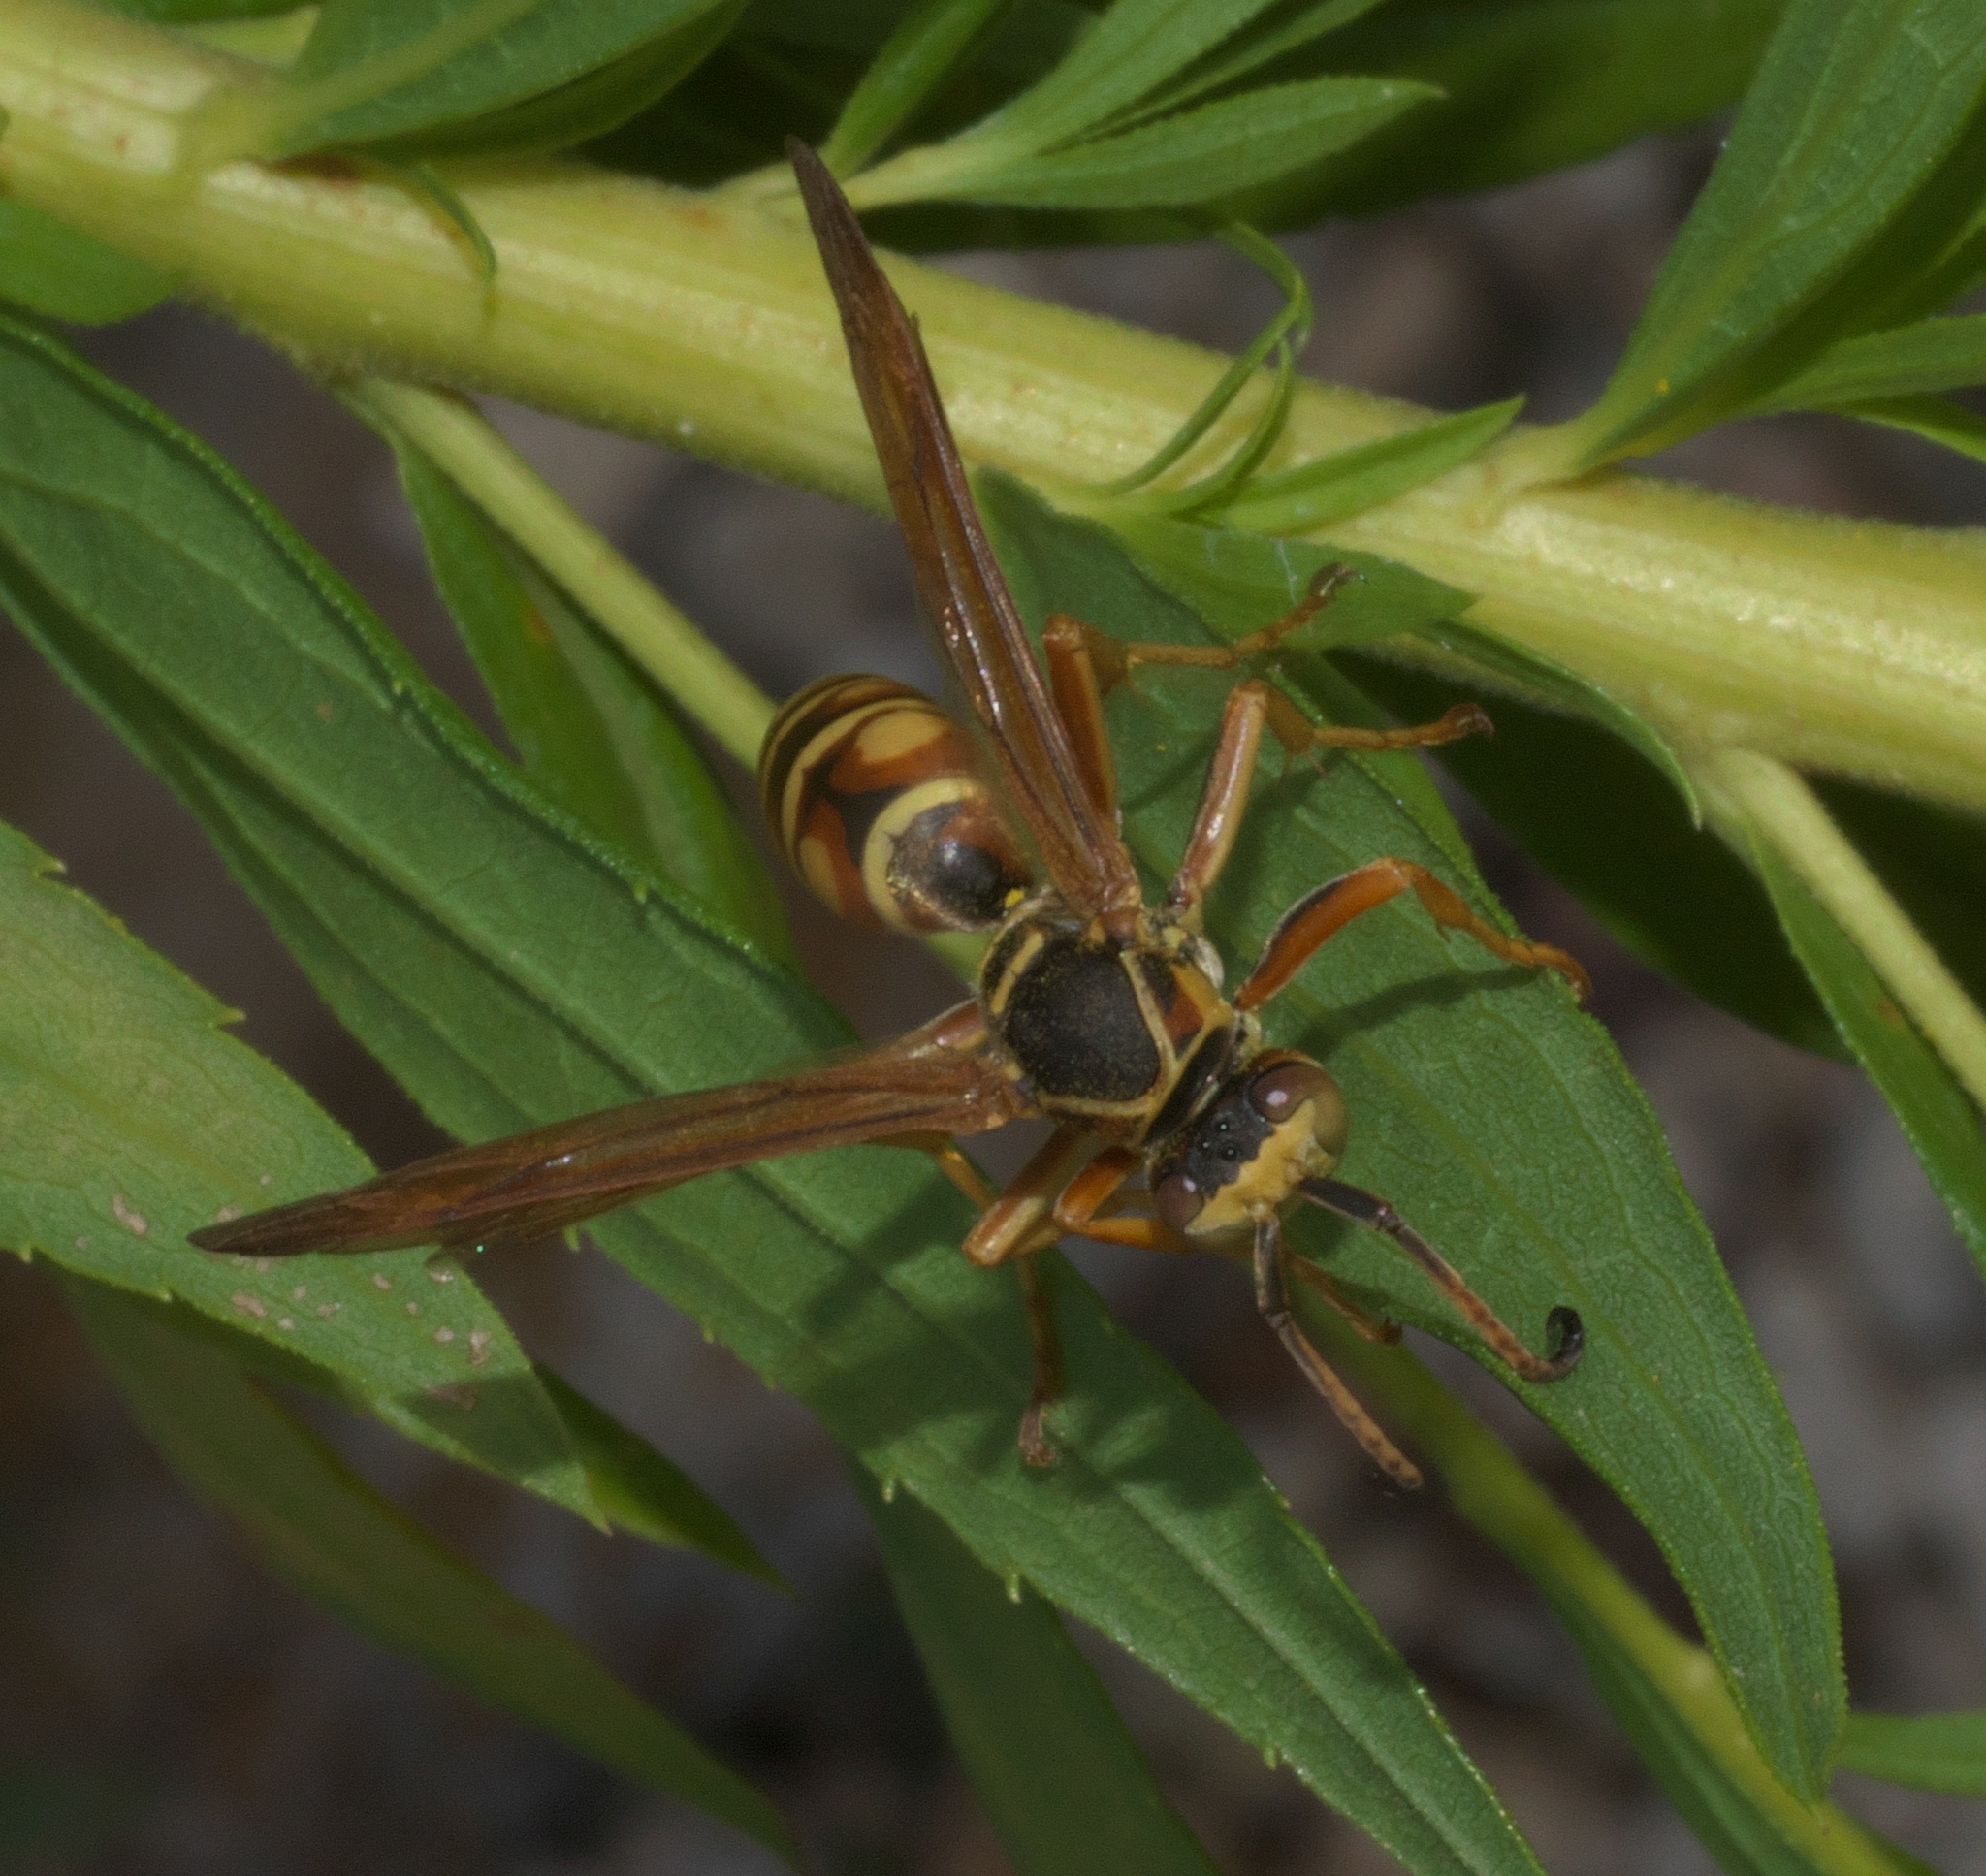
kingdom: Animalia
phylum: Arthropoda
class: Insecta
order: Hymenoptera
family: Eumenidae
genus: Polistes
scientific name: Polistes fuscatus
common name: Dark paper wasp
